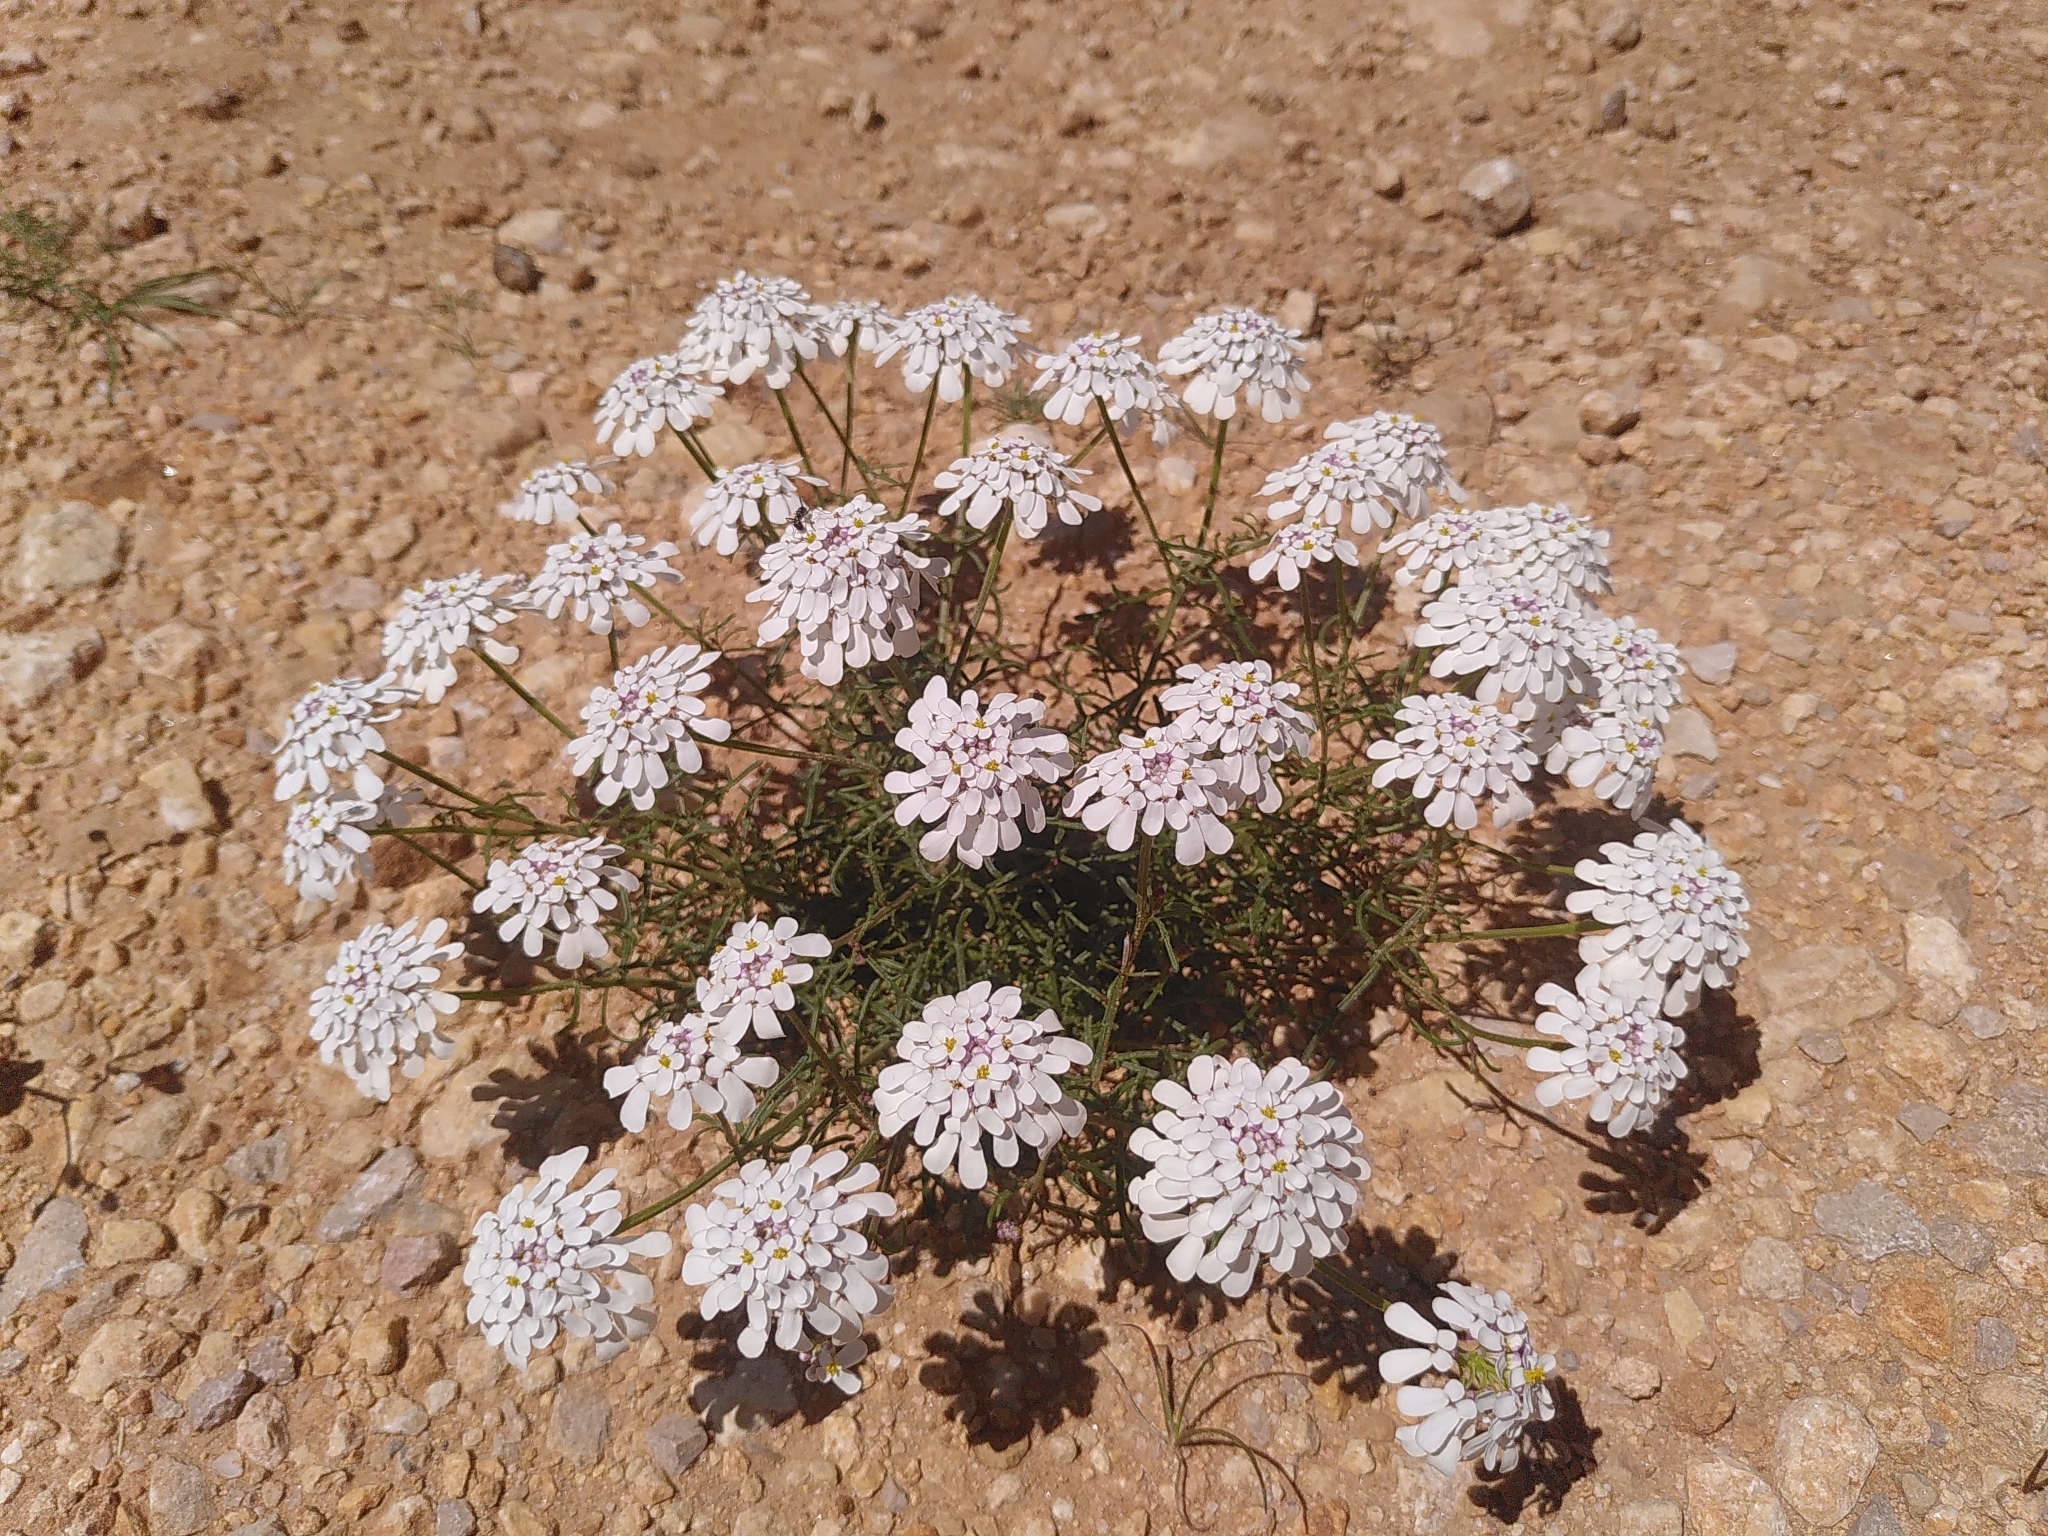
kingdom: Plantae
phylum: Tracheophyta
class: Magnoliopsida
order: Brassicales
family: Brassicaceae
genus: Iberis
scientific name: Iberis pinnata
